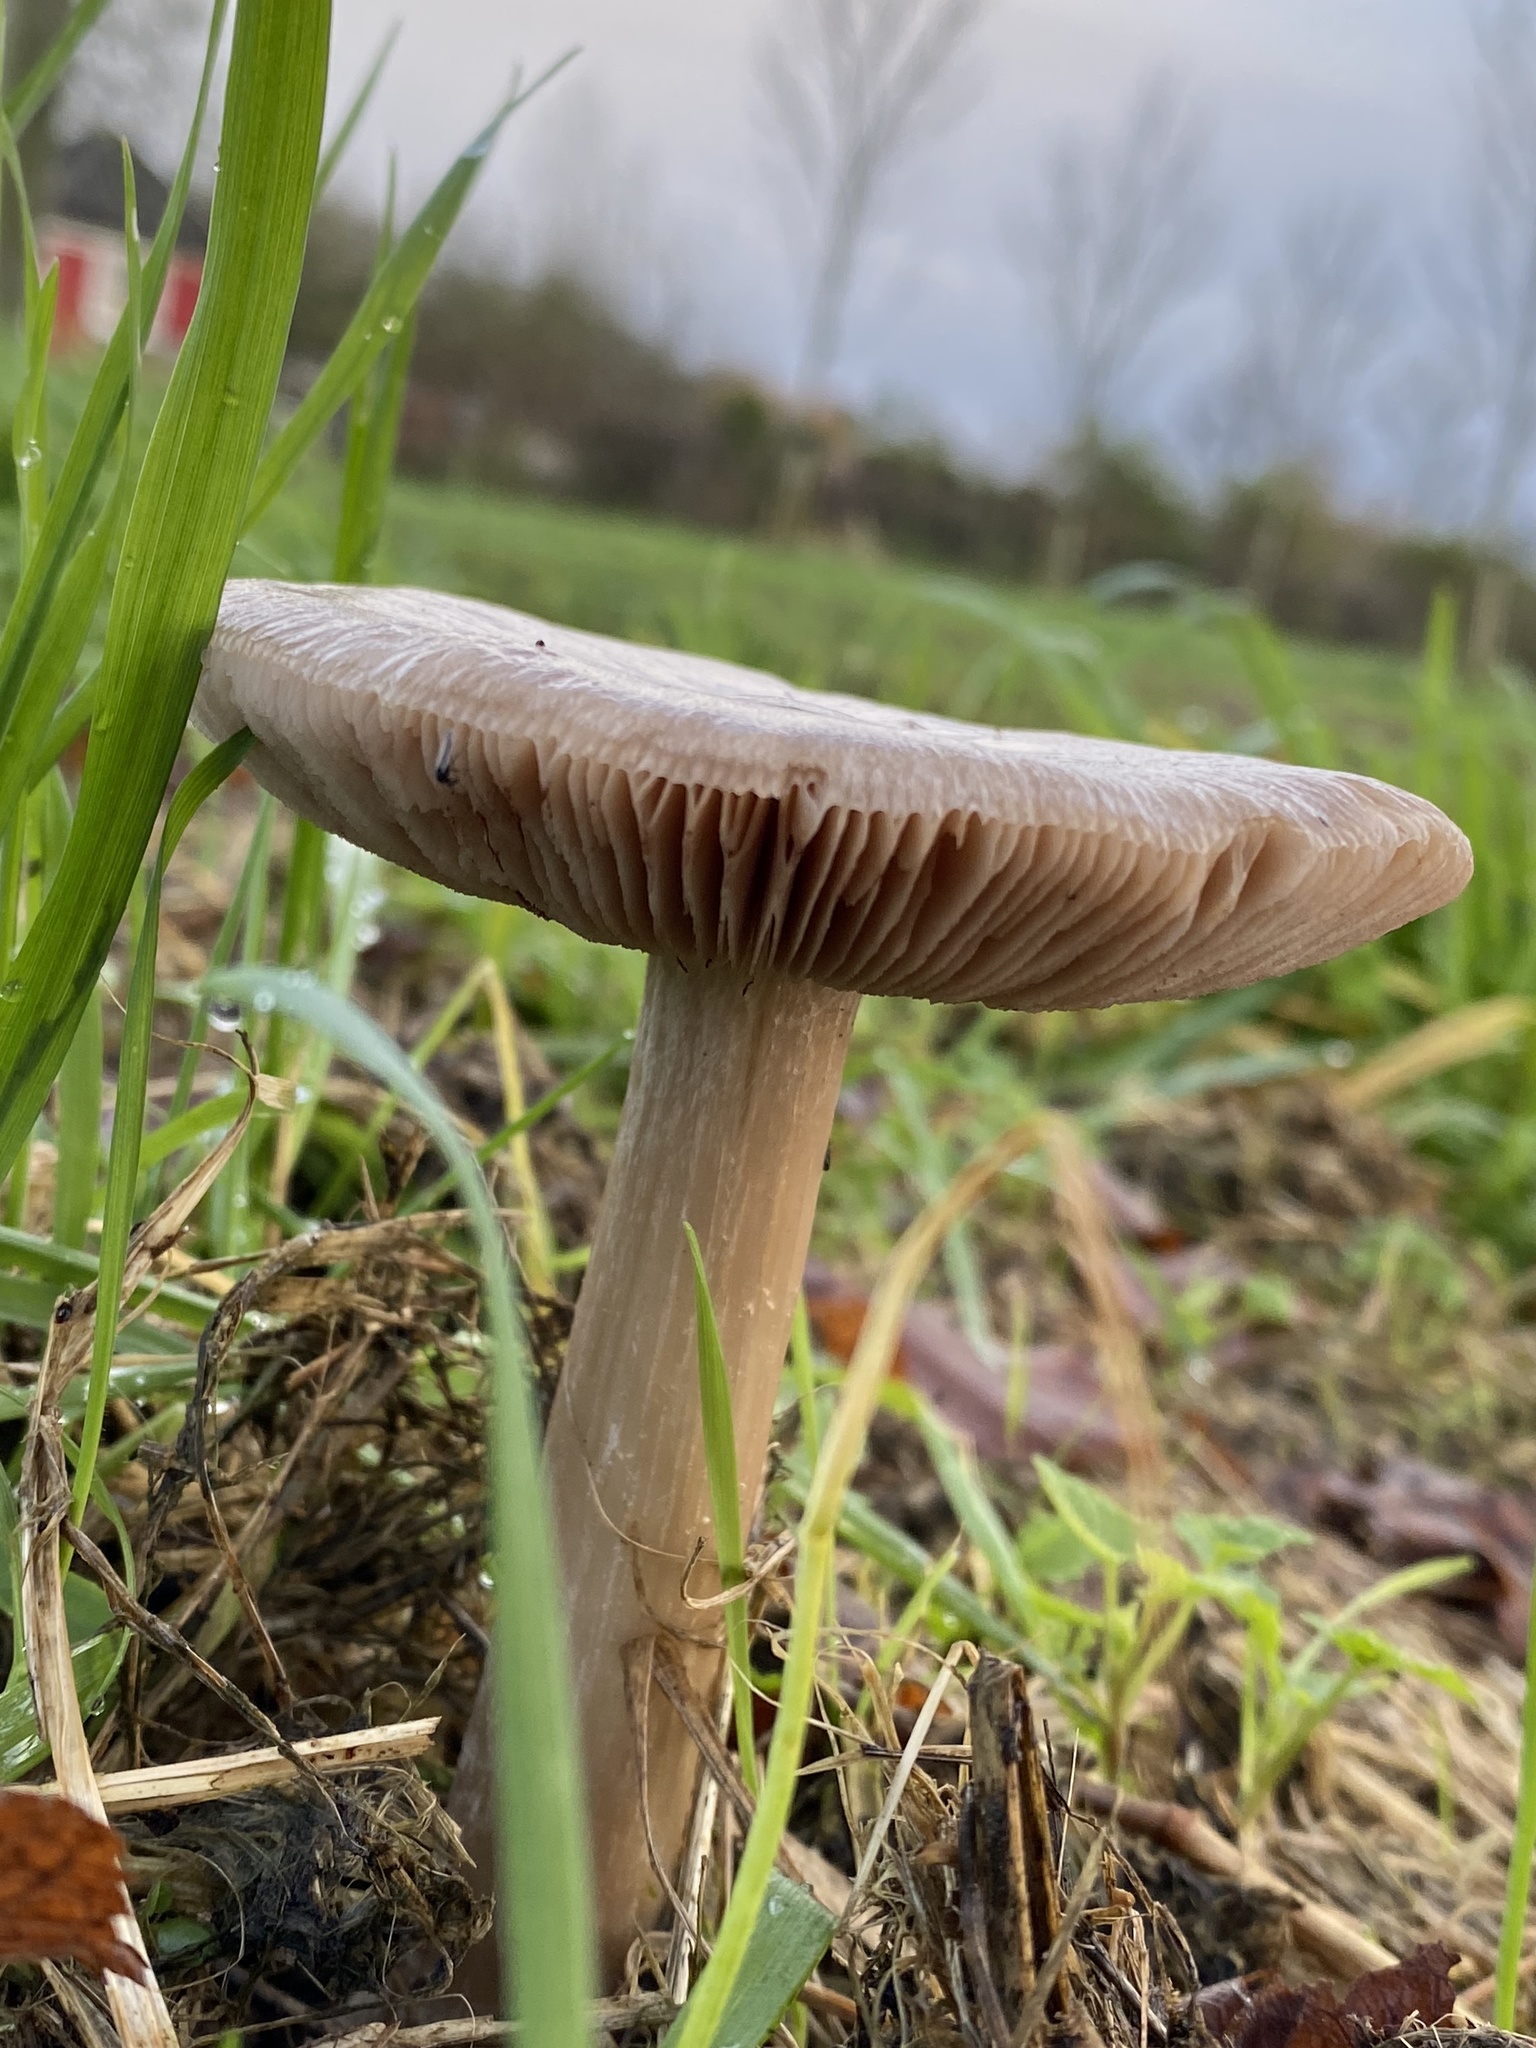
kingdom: Fungi
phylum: Basidiomycota
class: Agaricomycetes
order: Agaricales
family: Pluteaceae
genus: Volvopluteus
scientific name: Volvopluteus gloiocephalus
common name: Stubble rosegill
